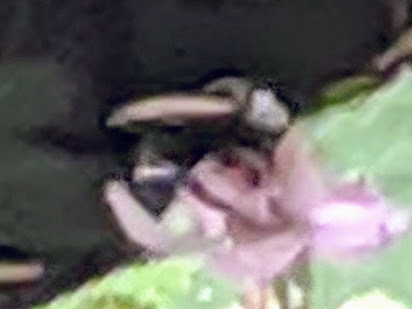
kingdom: Animalia
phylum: Arthropoda
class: Insecta
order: Hymenoptera
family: Apidae
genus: Bombus
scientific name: Bombus vosnesenskii
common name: Vosnesensky bumble bee
